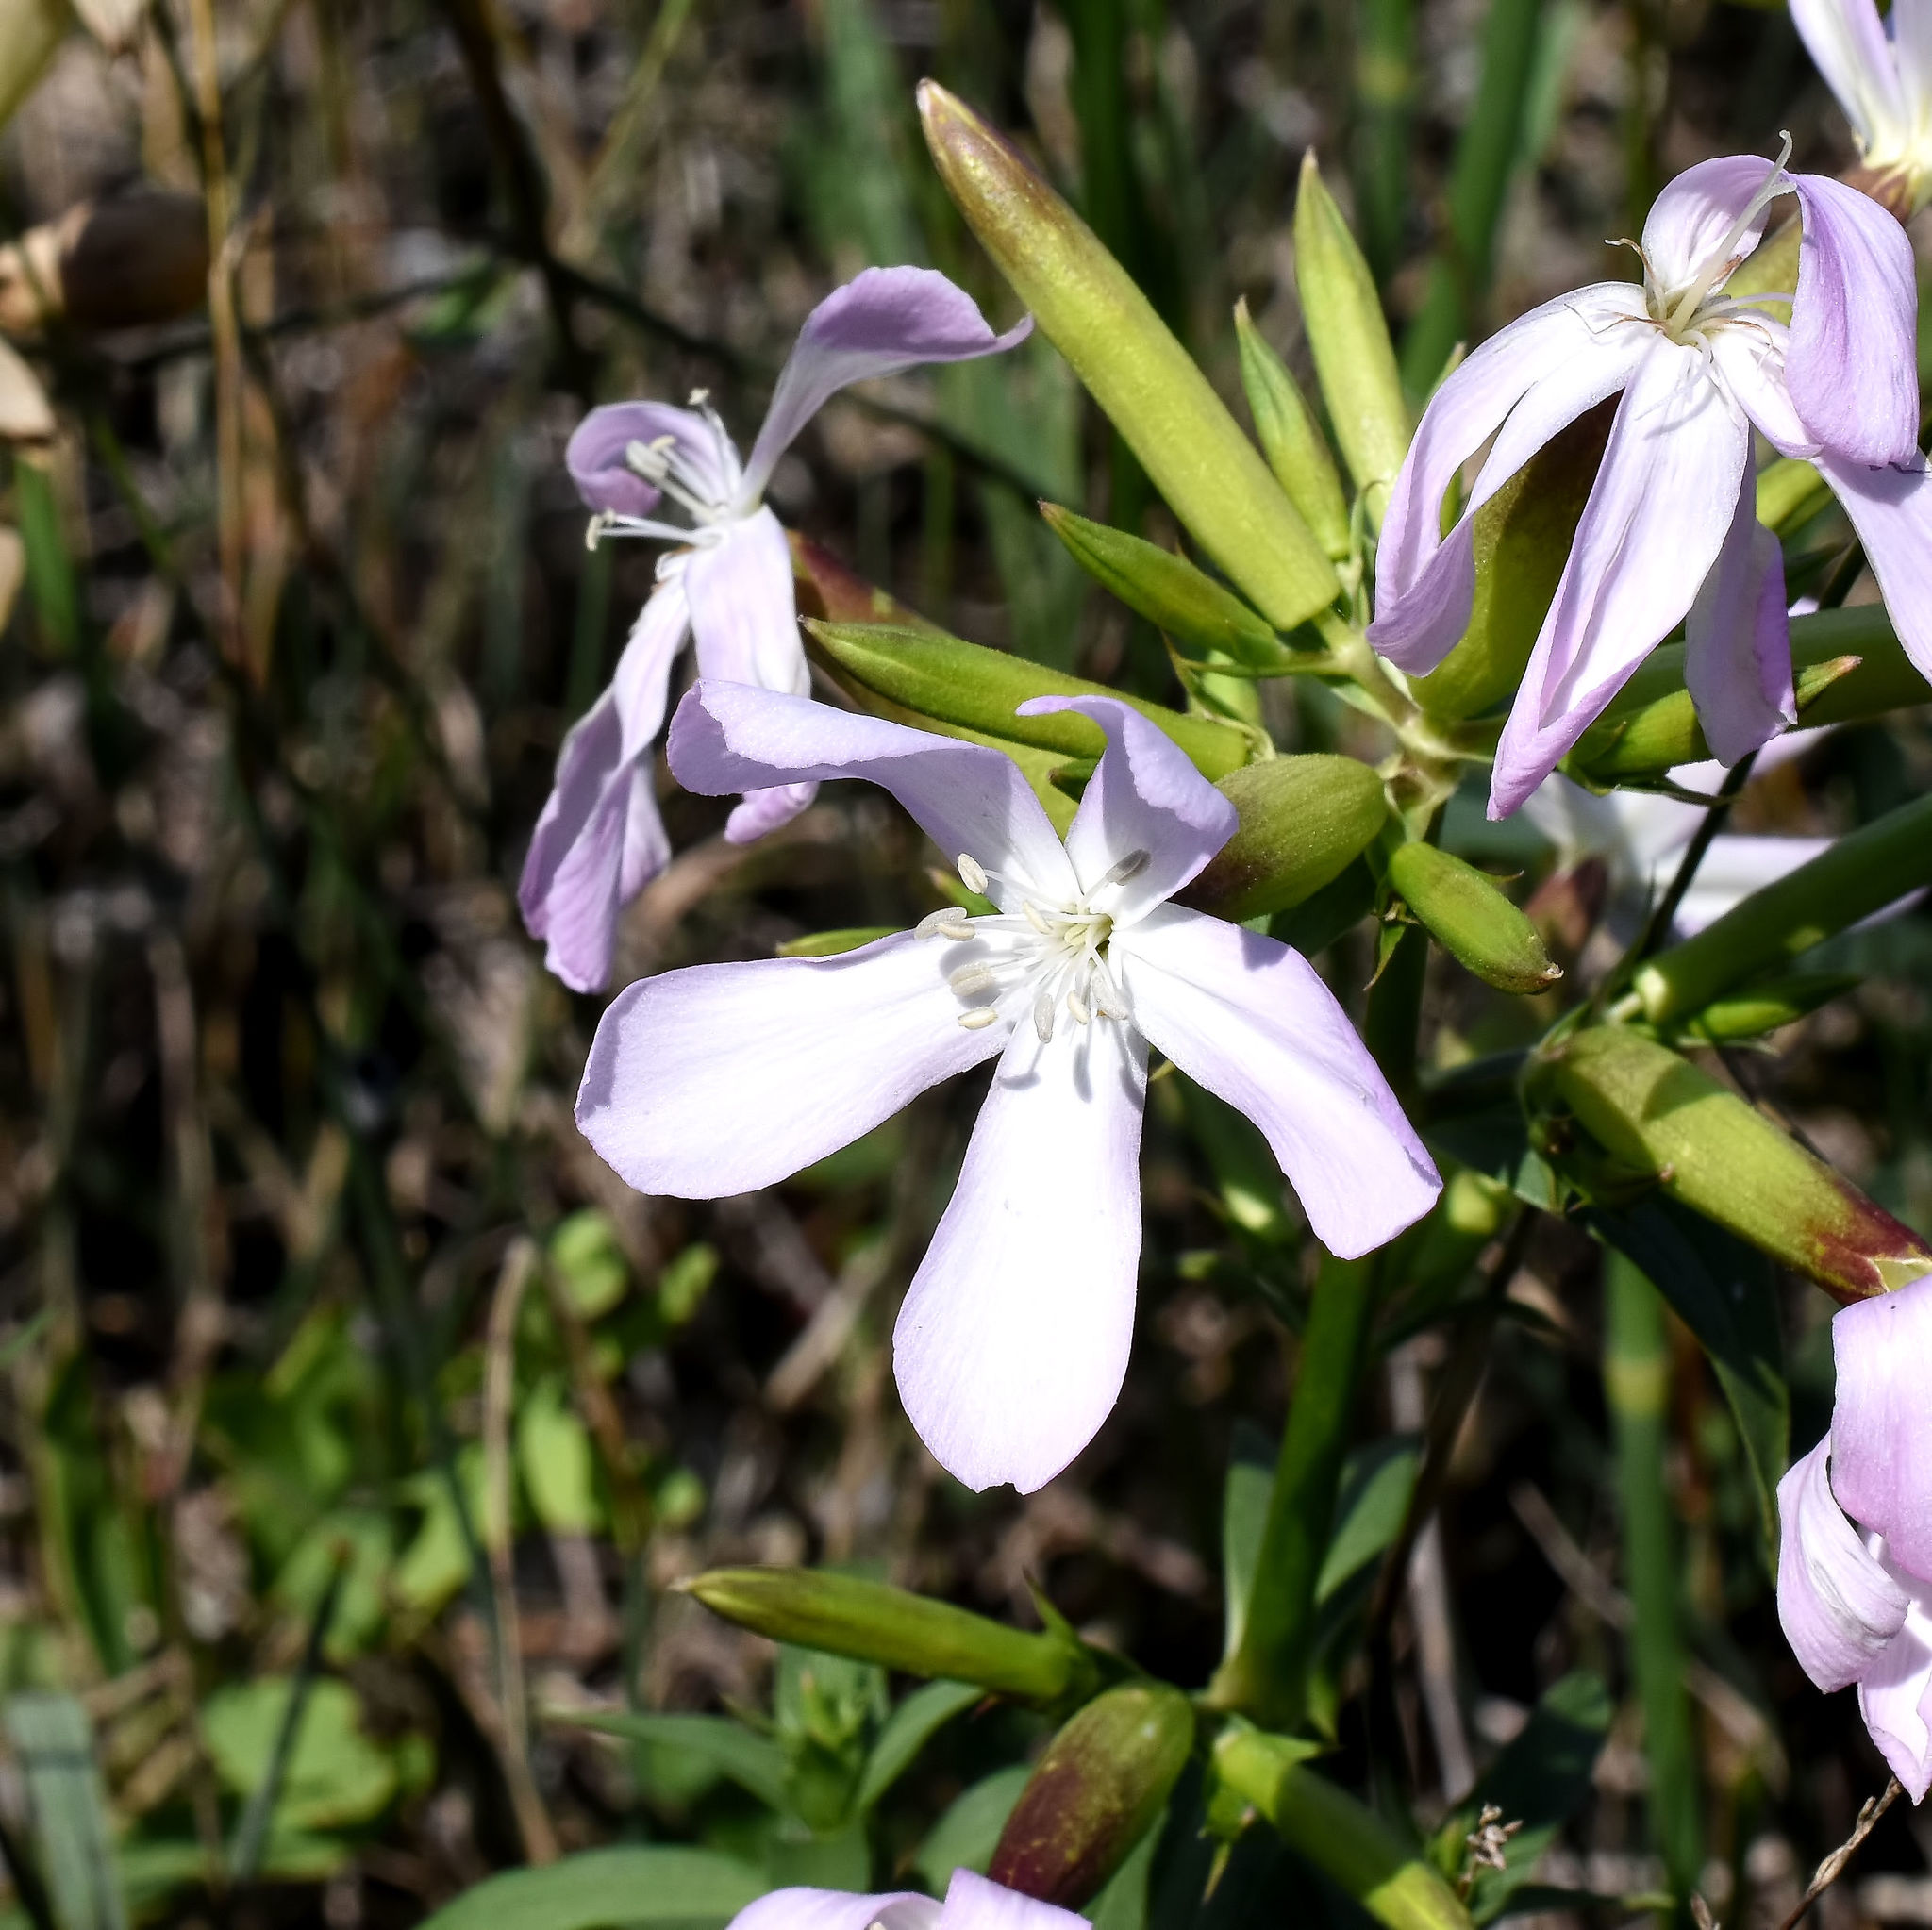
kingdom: Plantae
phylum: Tracheophyta
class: Magnoliopsida
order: Caryophyllales
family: Caryophyllaceae
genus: Saponaria
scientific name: Saponaria officinalis
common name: Soapwort
